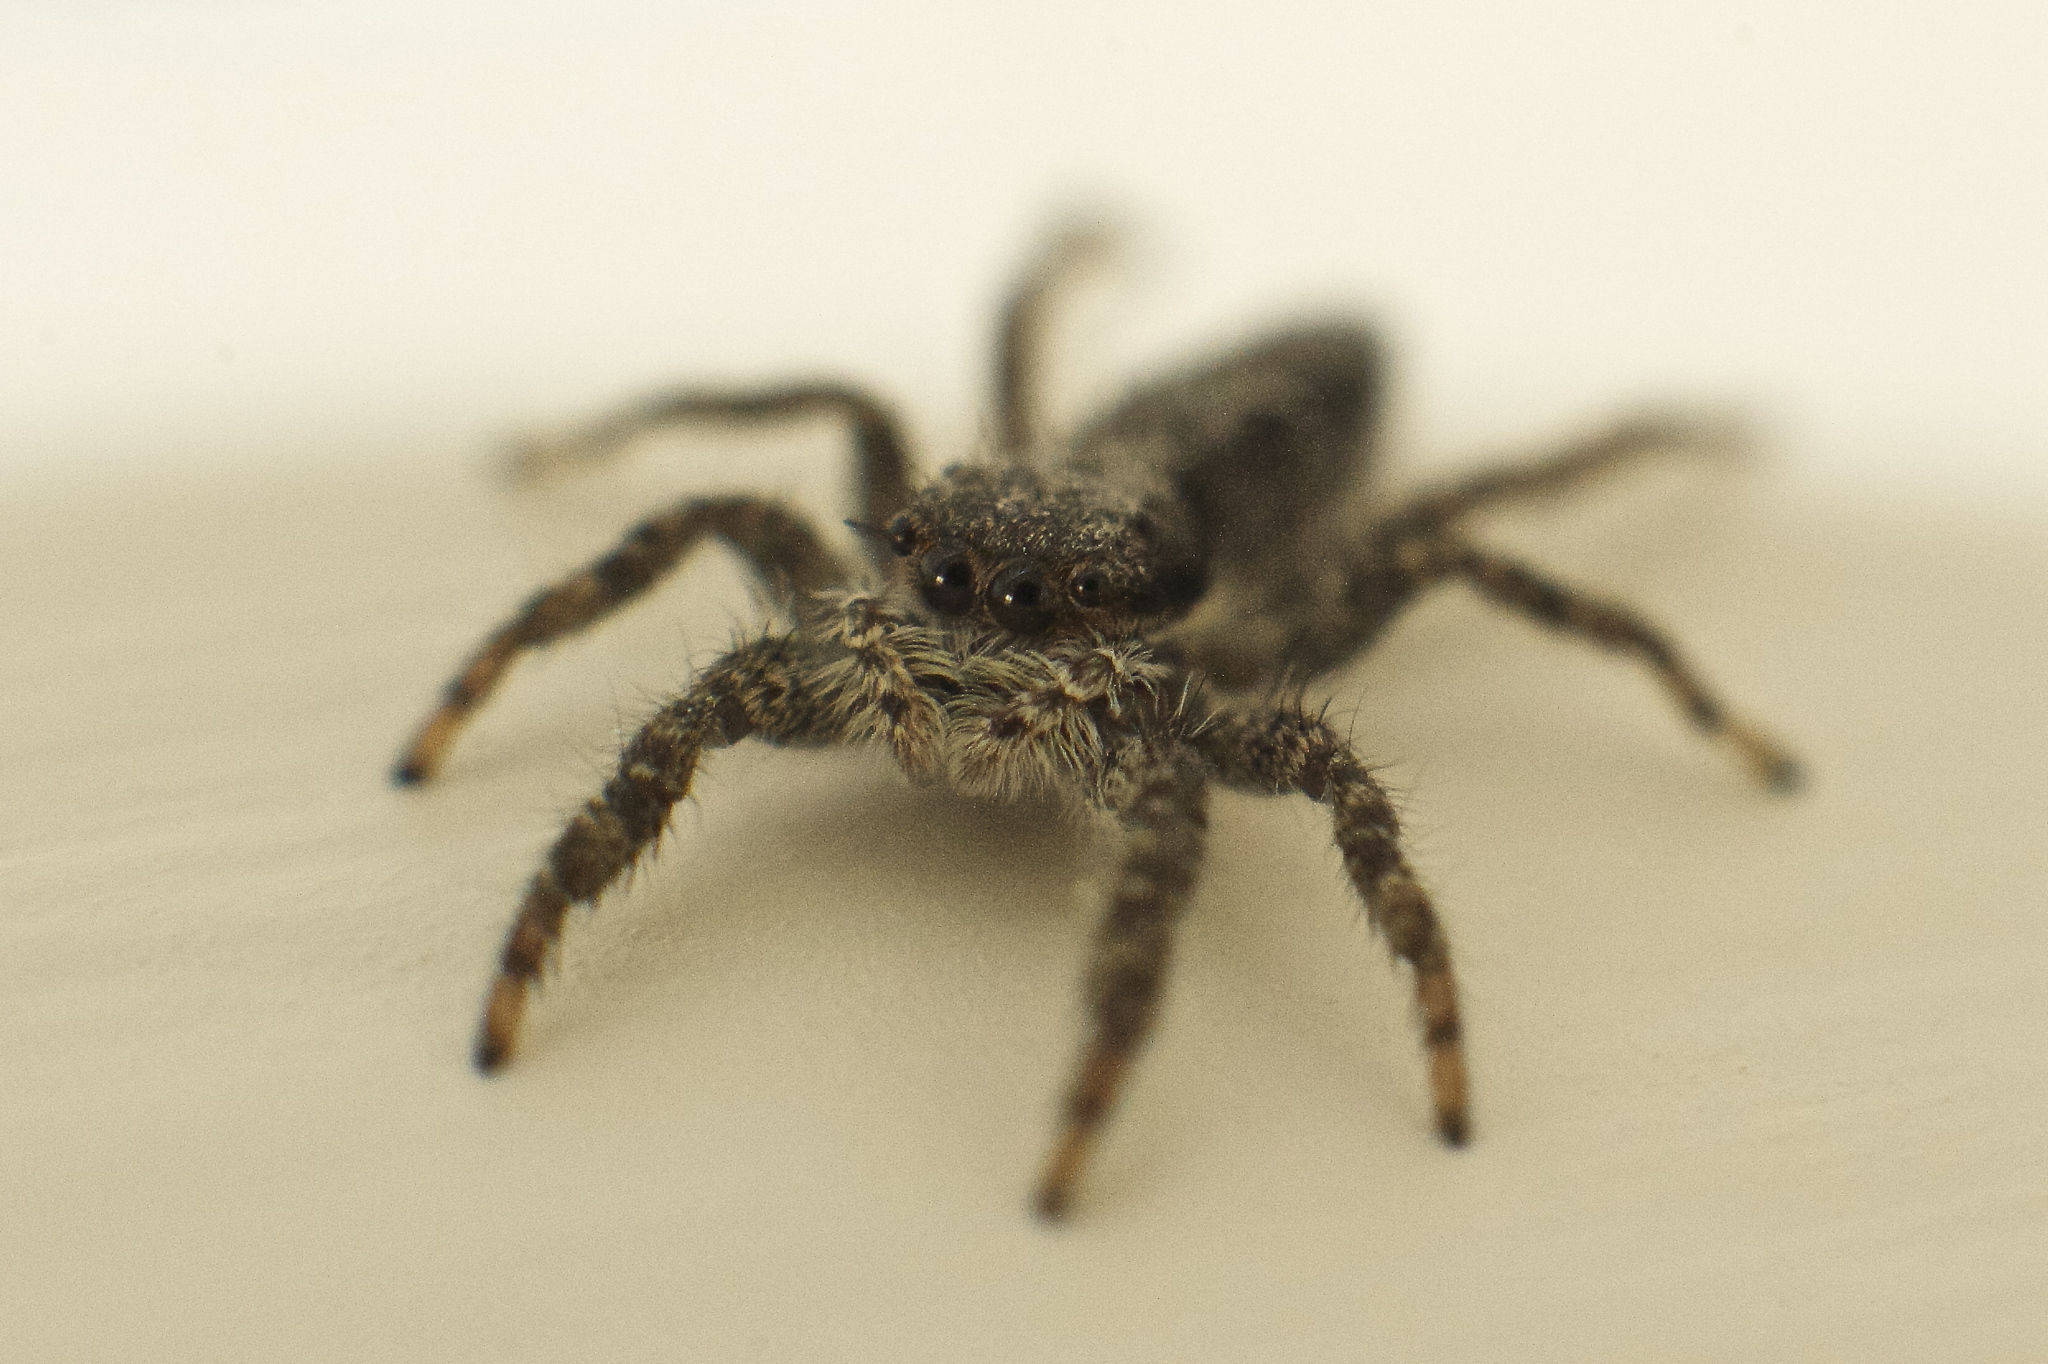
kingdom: Animalia
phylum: Arthropoda
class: Arachnida
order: Araneae
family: Salticidae
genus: Platycryptus
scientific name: Platycryptus californicus
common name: Jumping spiders
